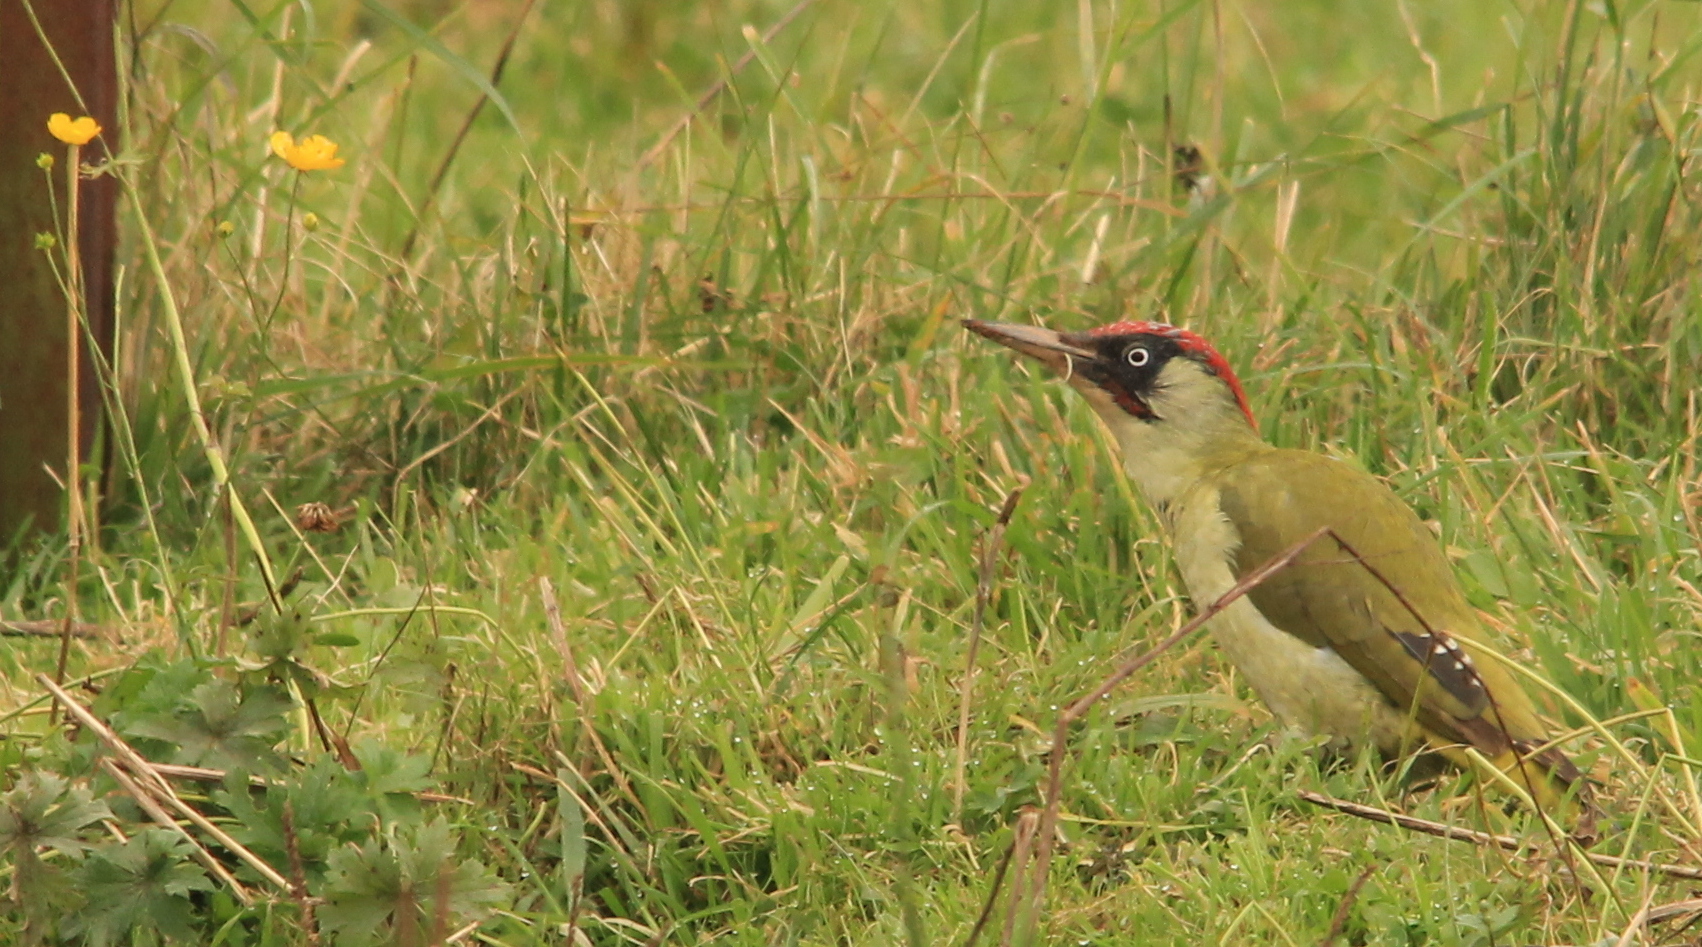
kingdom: Animalia
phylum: Chordata
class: Aves
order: Piciformes
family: Picidae
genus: Picus
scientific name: Picus viridis
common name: European green woodpecker
